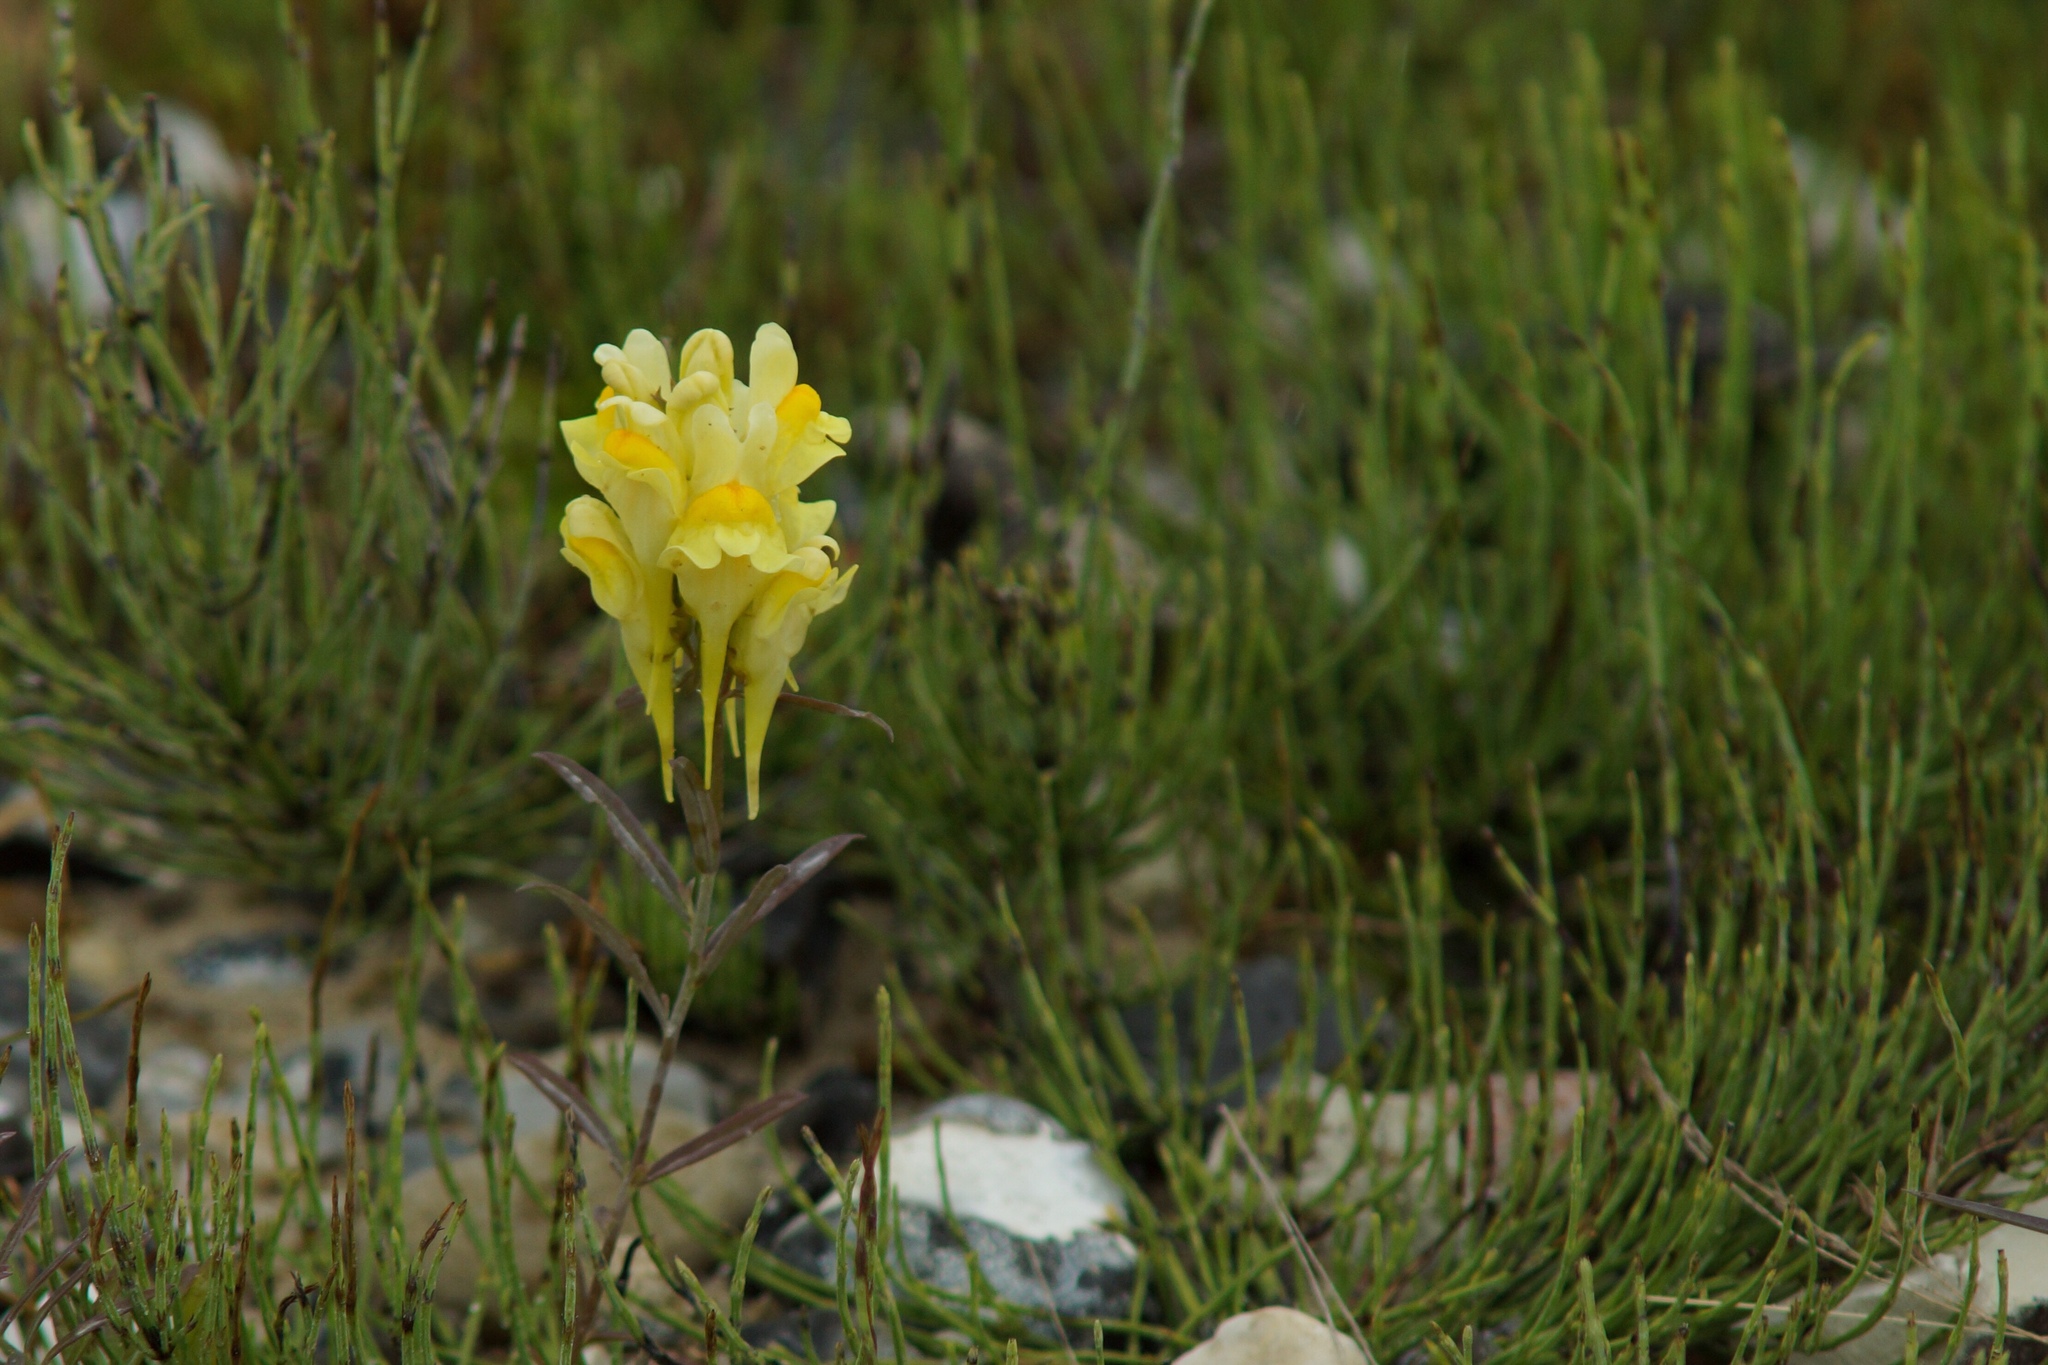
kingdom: Plantae
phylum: Tracheophyta
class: Magnoliopsida
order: Lamiales
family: Plantaginaceae
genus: Linaria
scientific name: Linaria vulgaris
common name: Butter and eggs
